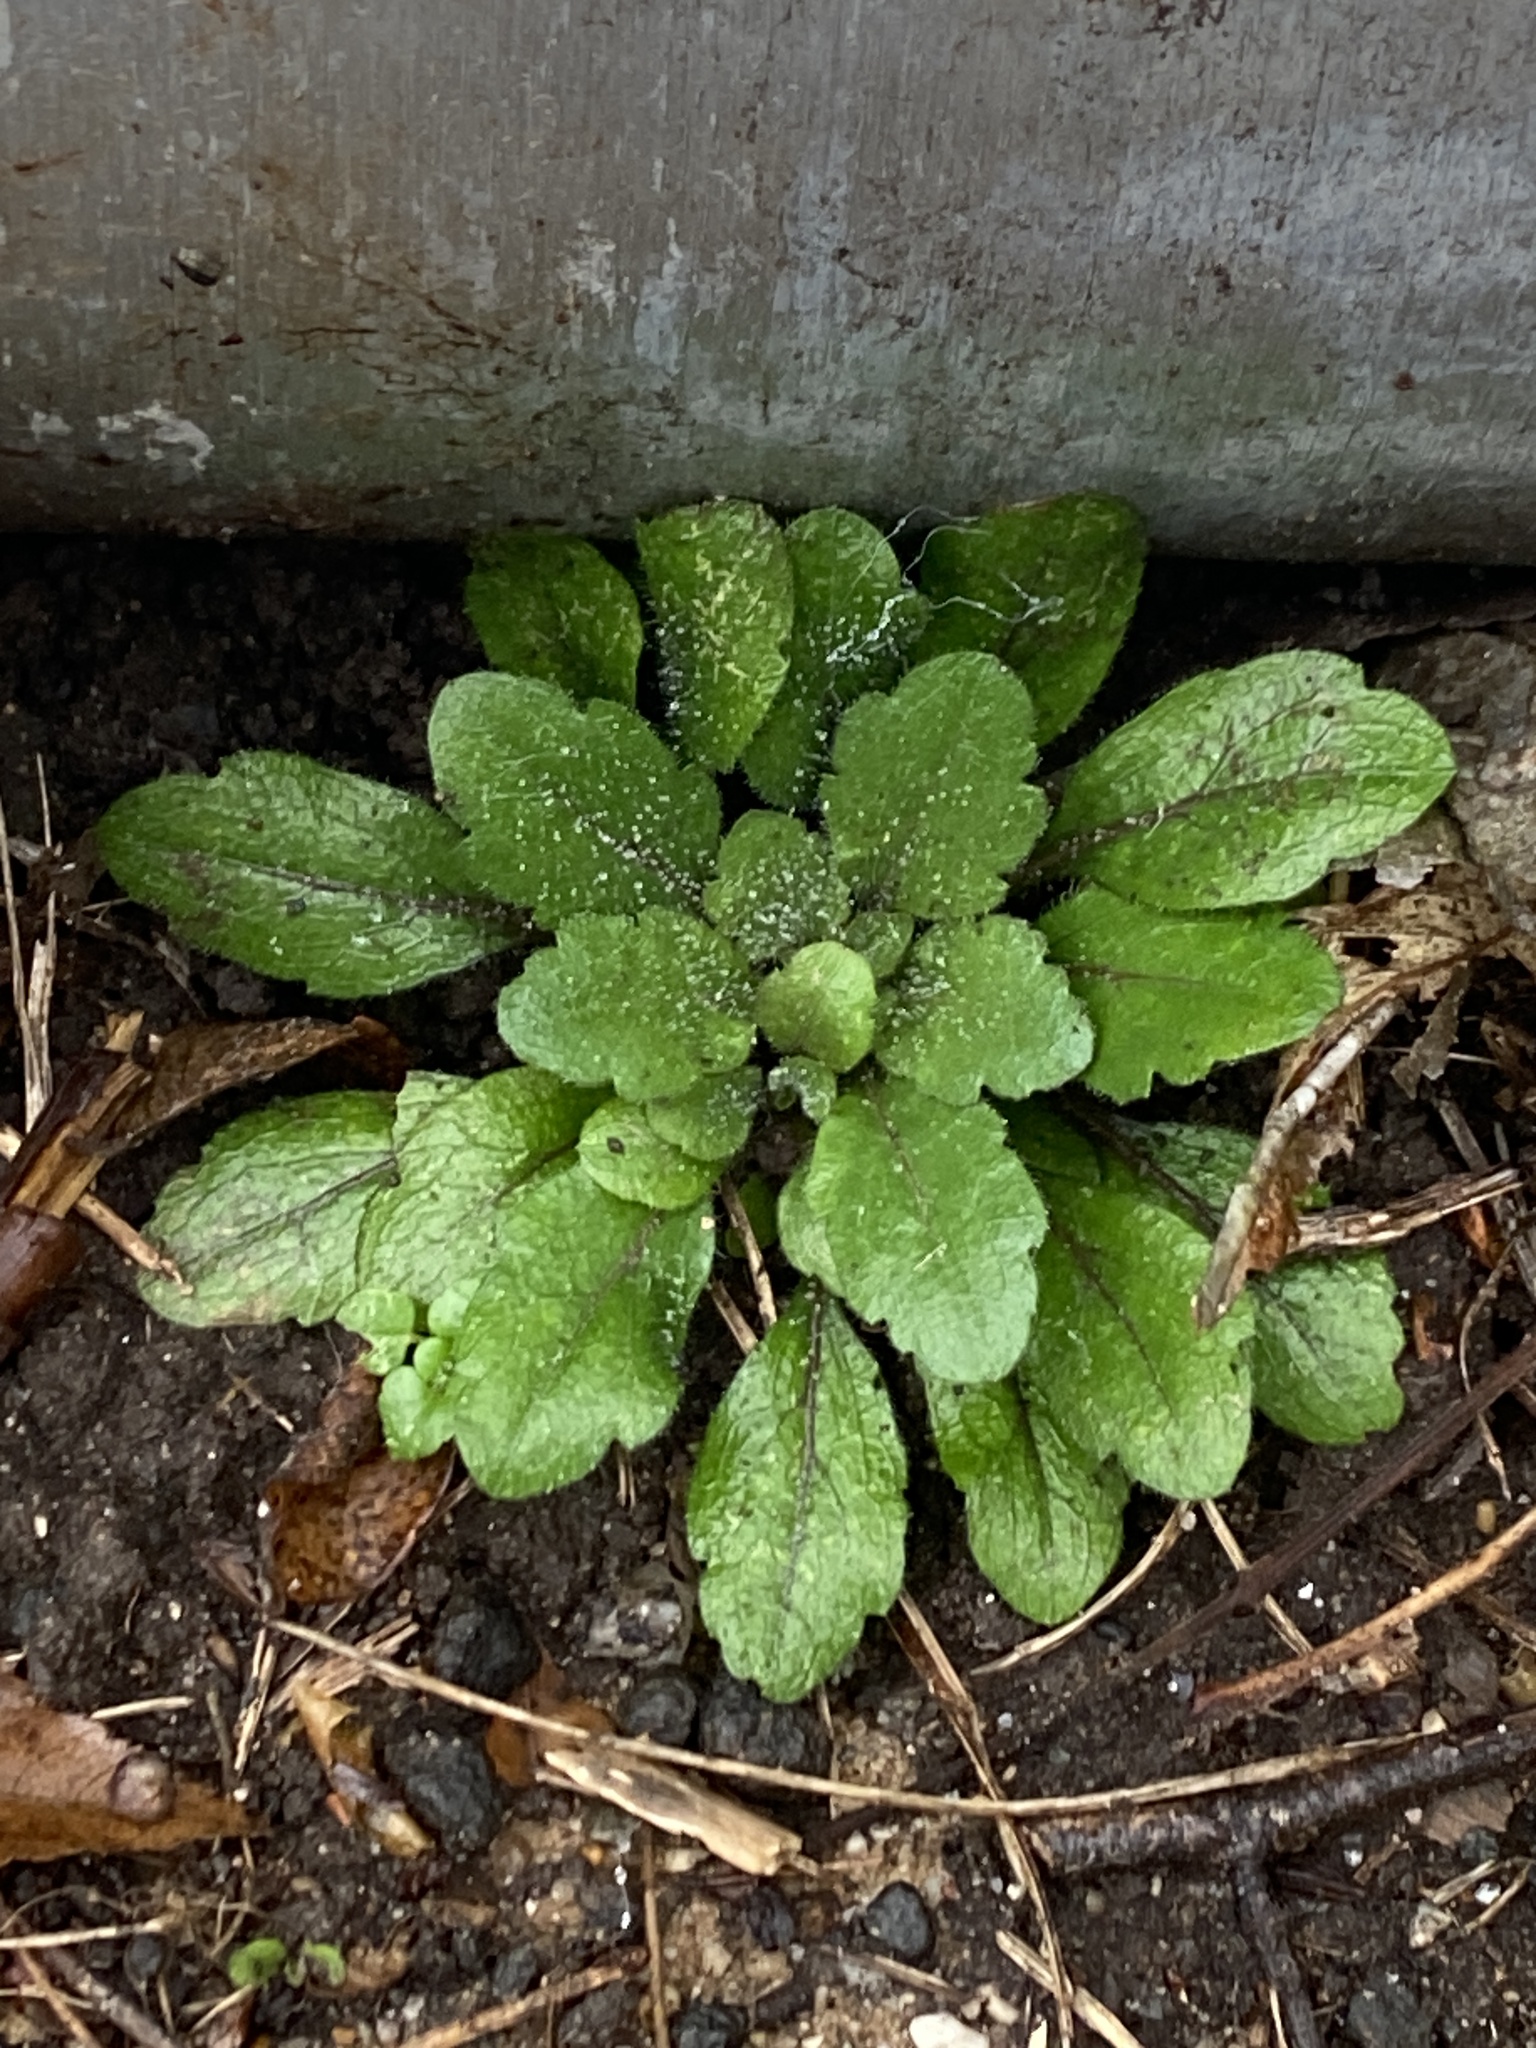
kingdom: Plantae
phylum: Tracheophyta
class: Magnoliopsida
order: Asterales
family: Asteraceae
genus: Erigeron
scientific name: Erigeron canadensis
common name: Canadian fleabane
